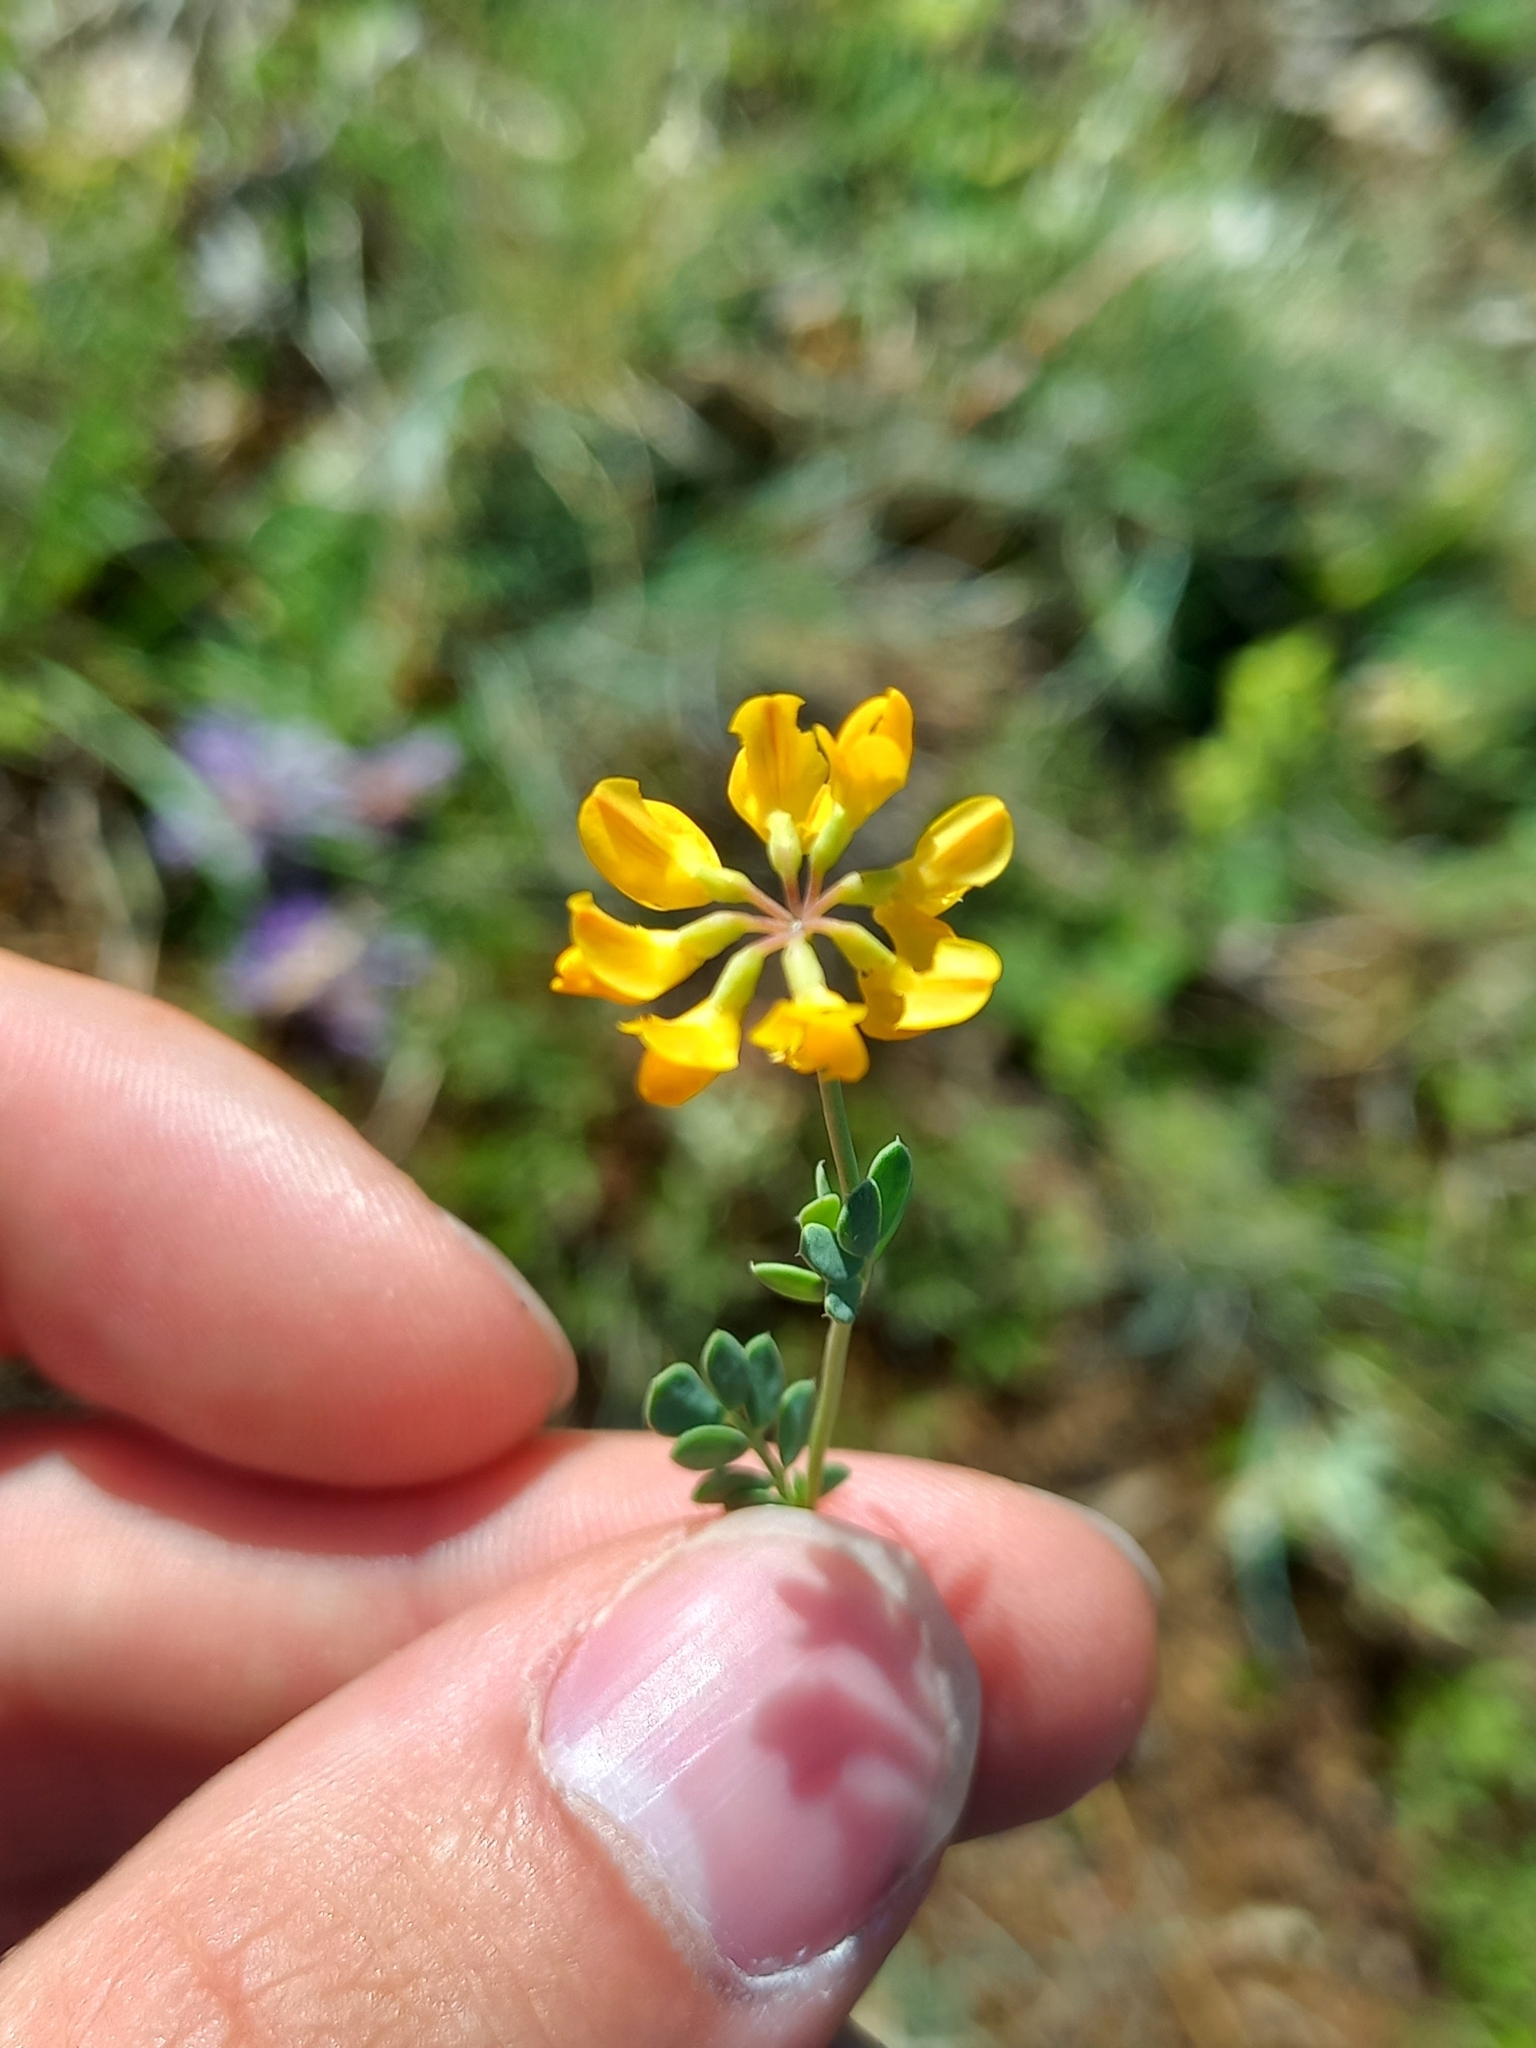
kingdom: Plantae
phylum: Tracheophyta
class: Magnoliopsida
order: Fabales
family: Fabaceae
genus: Coronilla
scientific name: Coronilla minima
